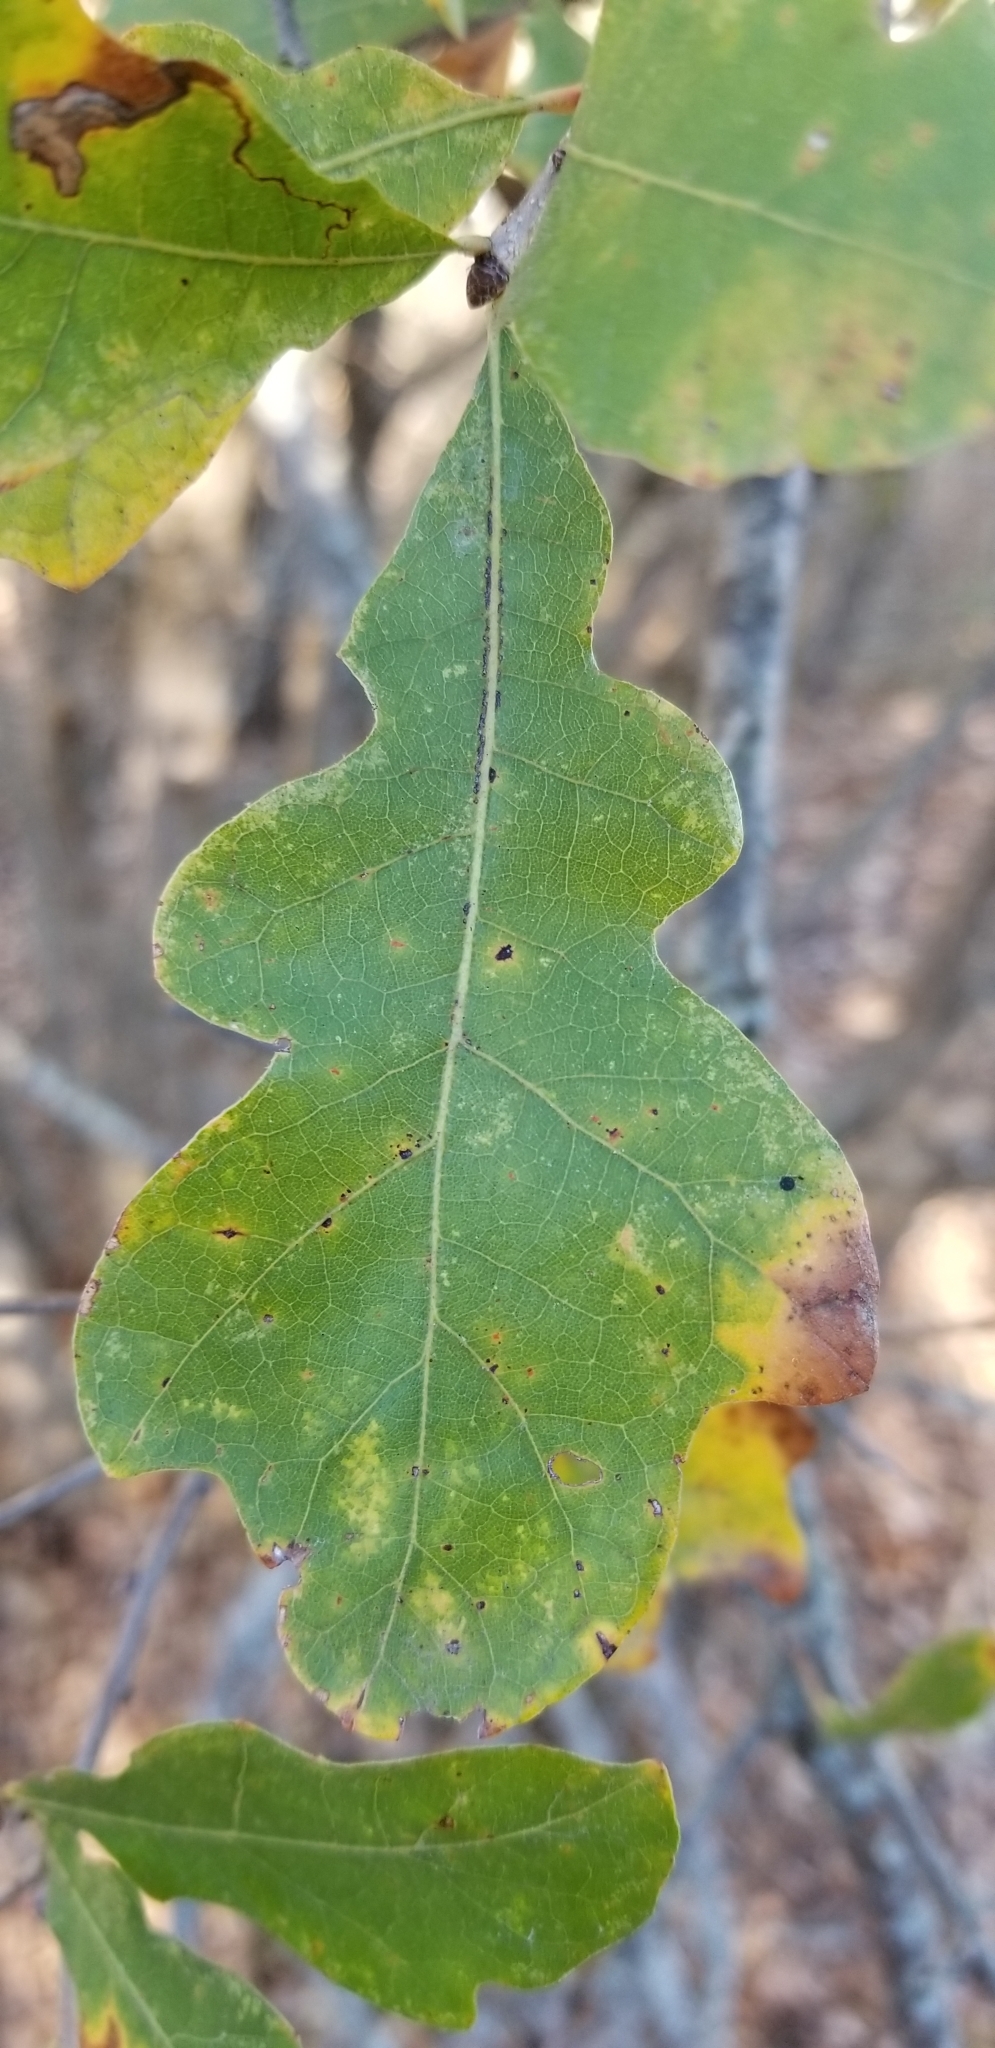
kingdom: Plantae
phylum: Tracheophyta
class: Magnoliopsida
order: Fagales
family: Fagaceae
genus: Quercus
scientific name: Quercus sinuata
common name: Durand oak
